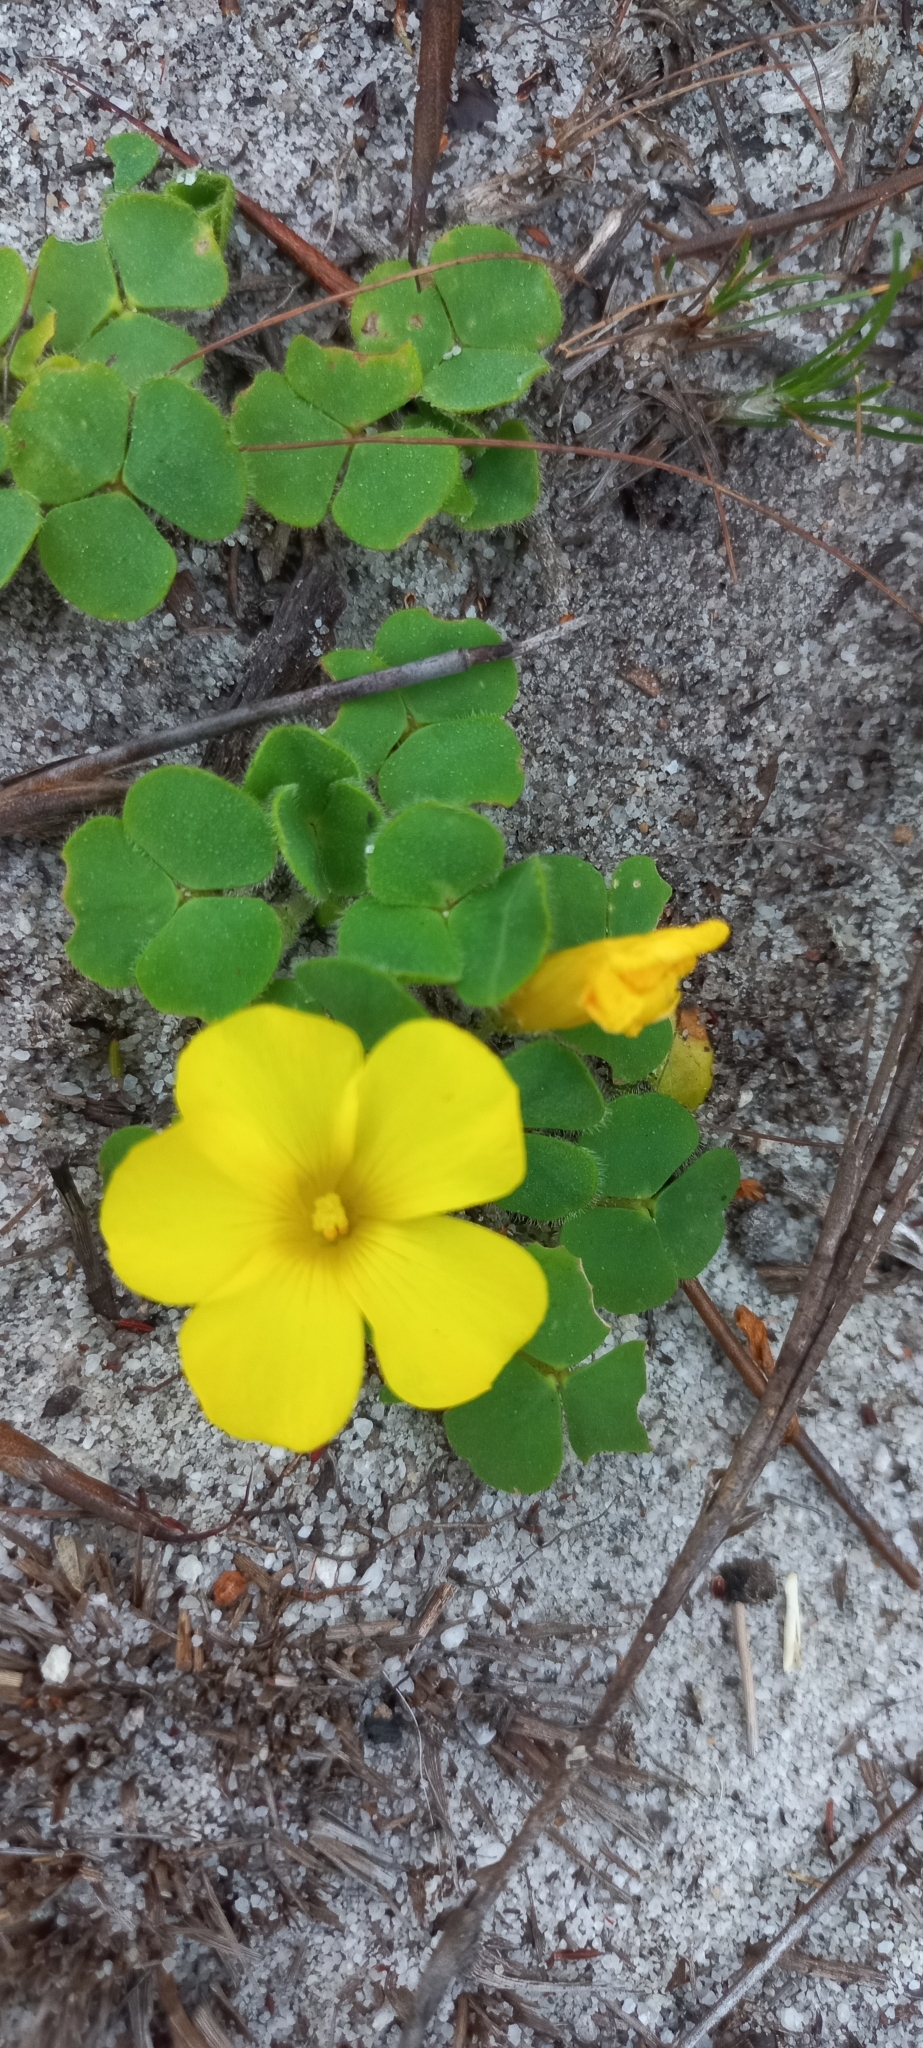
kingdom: Plantae
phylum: Tracheophyta
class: Magnoliopsida
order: Oxalidales
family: Oxalidaceae
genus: Oxalis
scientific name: Oxalis luteola
